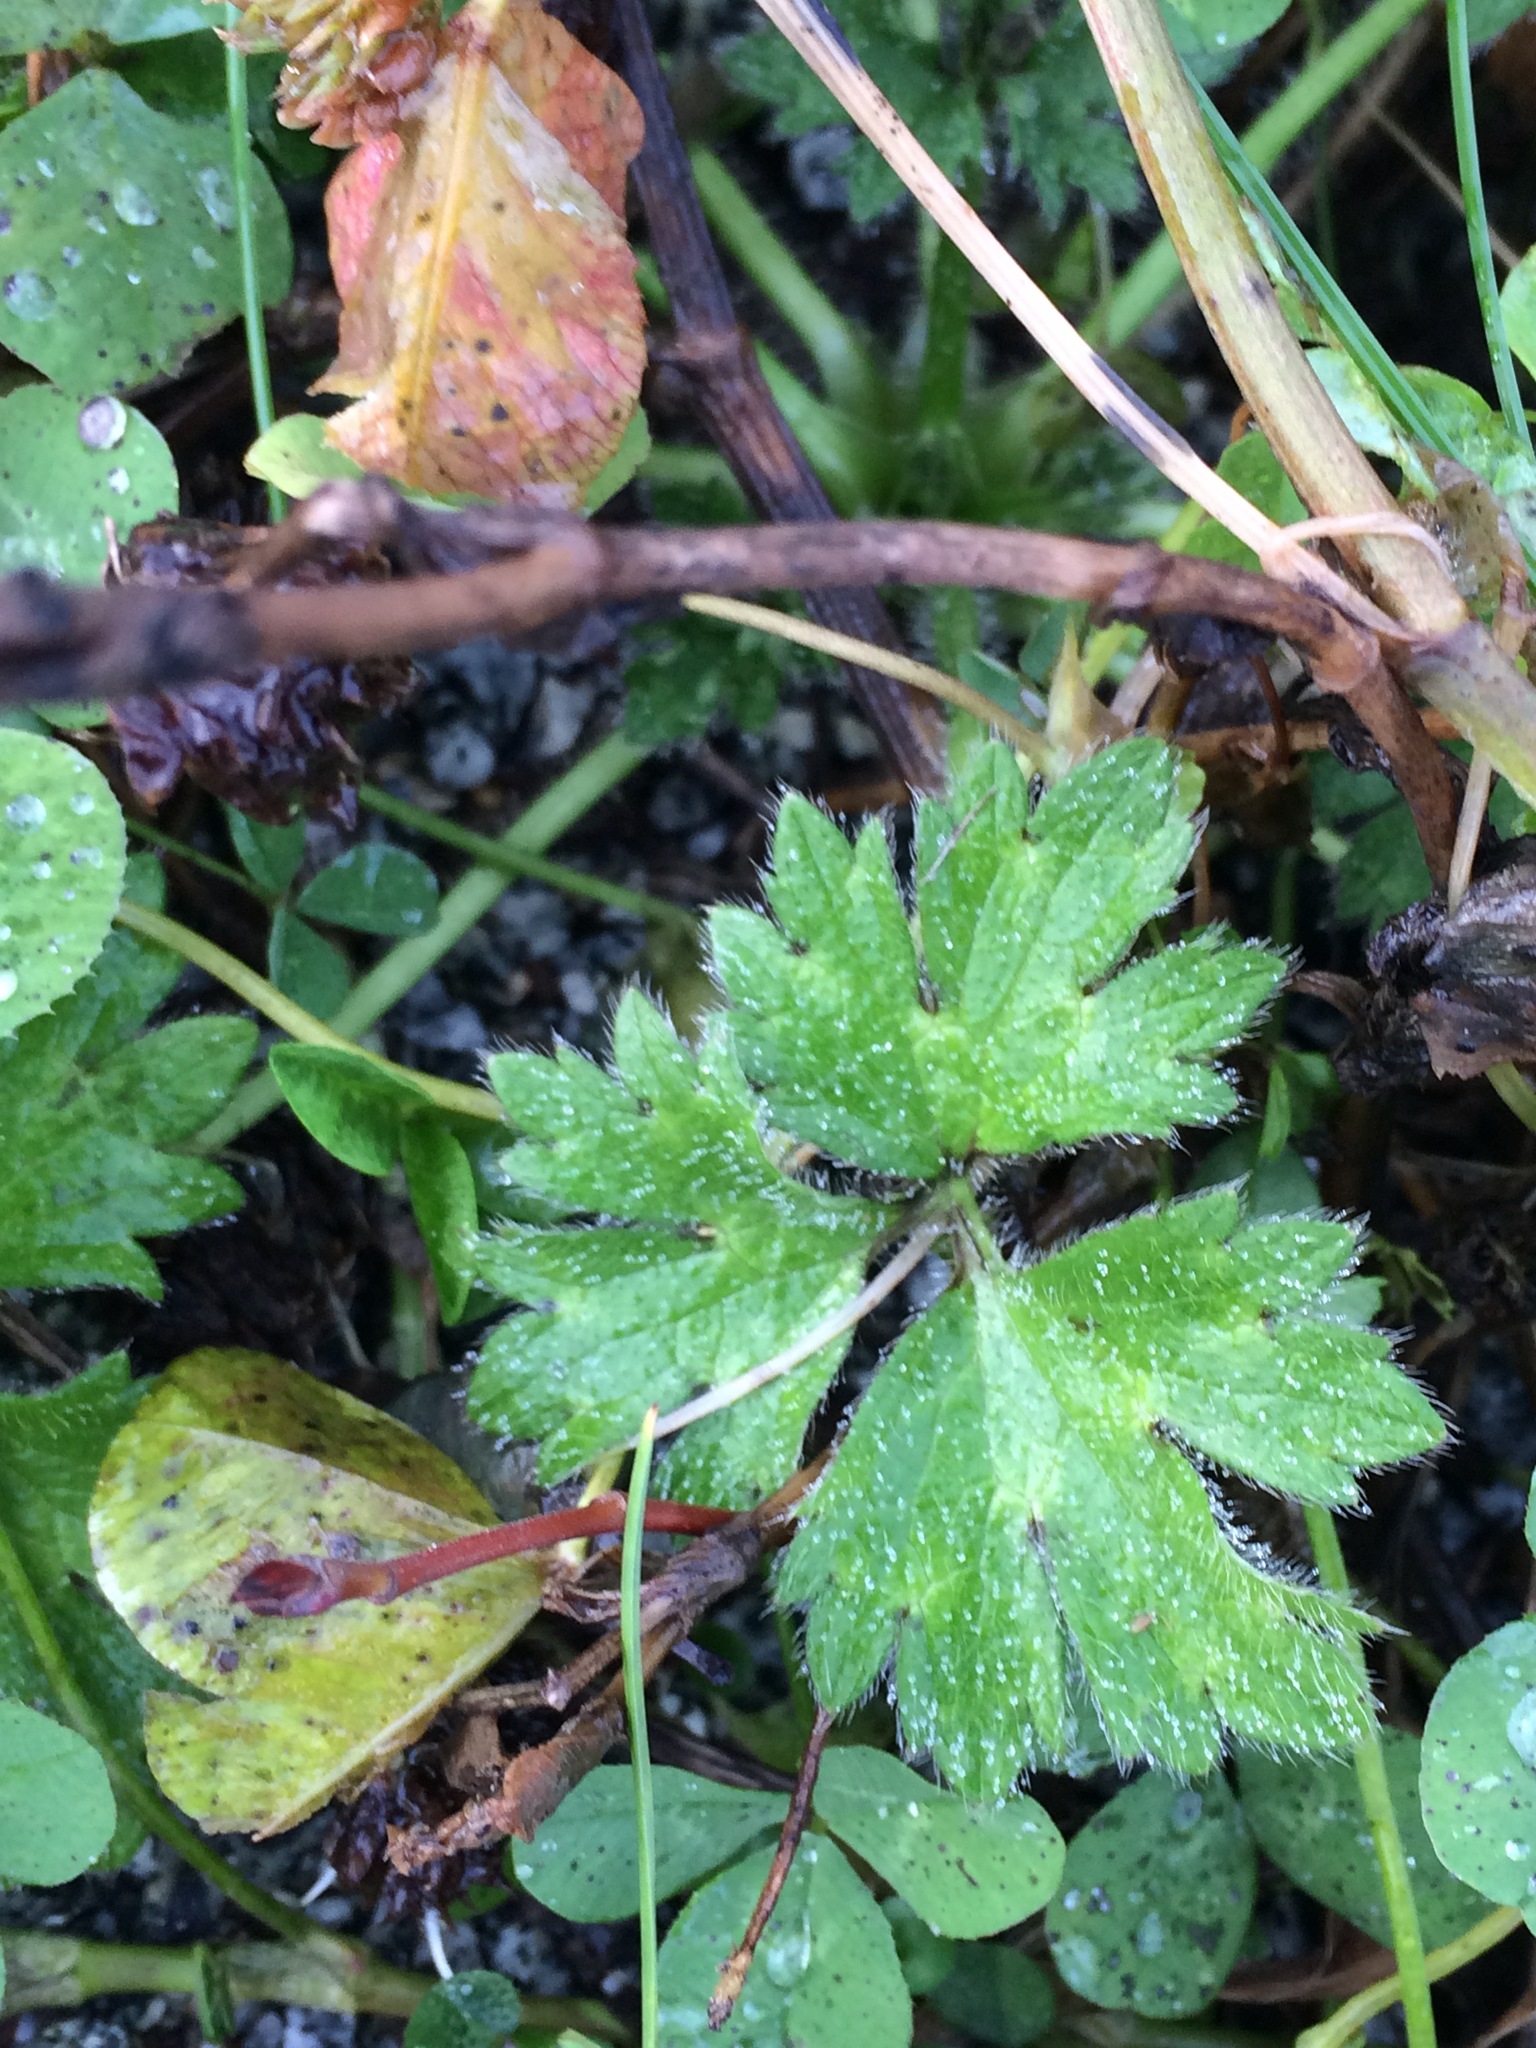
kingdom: Plantae
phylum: Tracheophyta
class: Magnoliopsida
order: Ranunculales
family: Ranunculaceae
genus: Ranunculus
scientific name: Ranunculus repens
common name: Creeping buttercup
